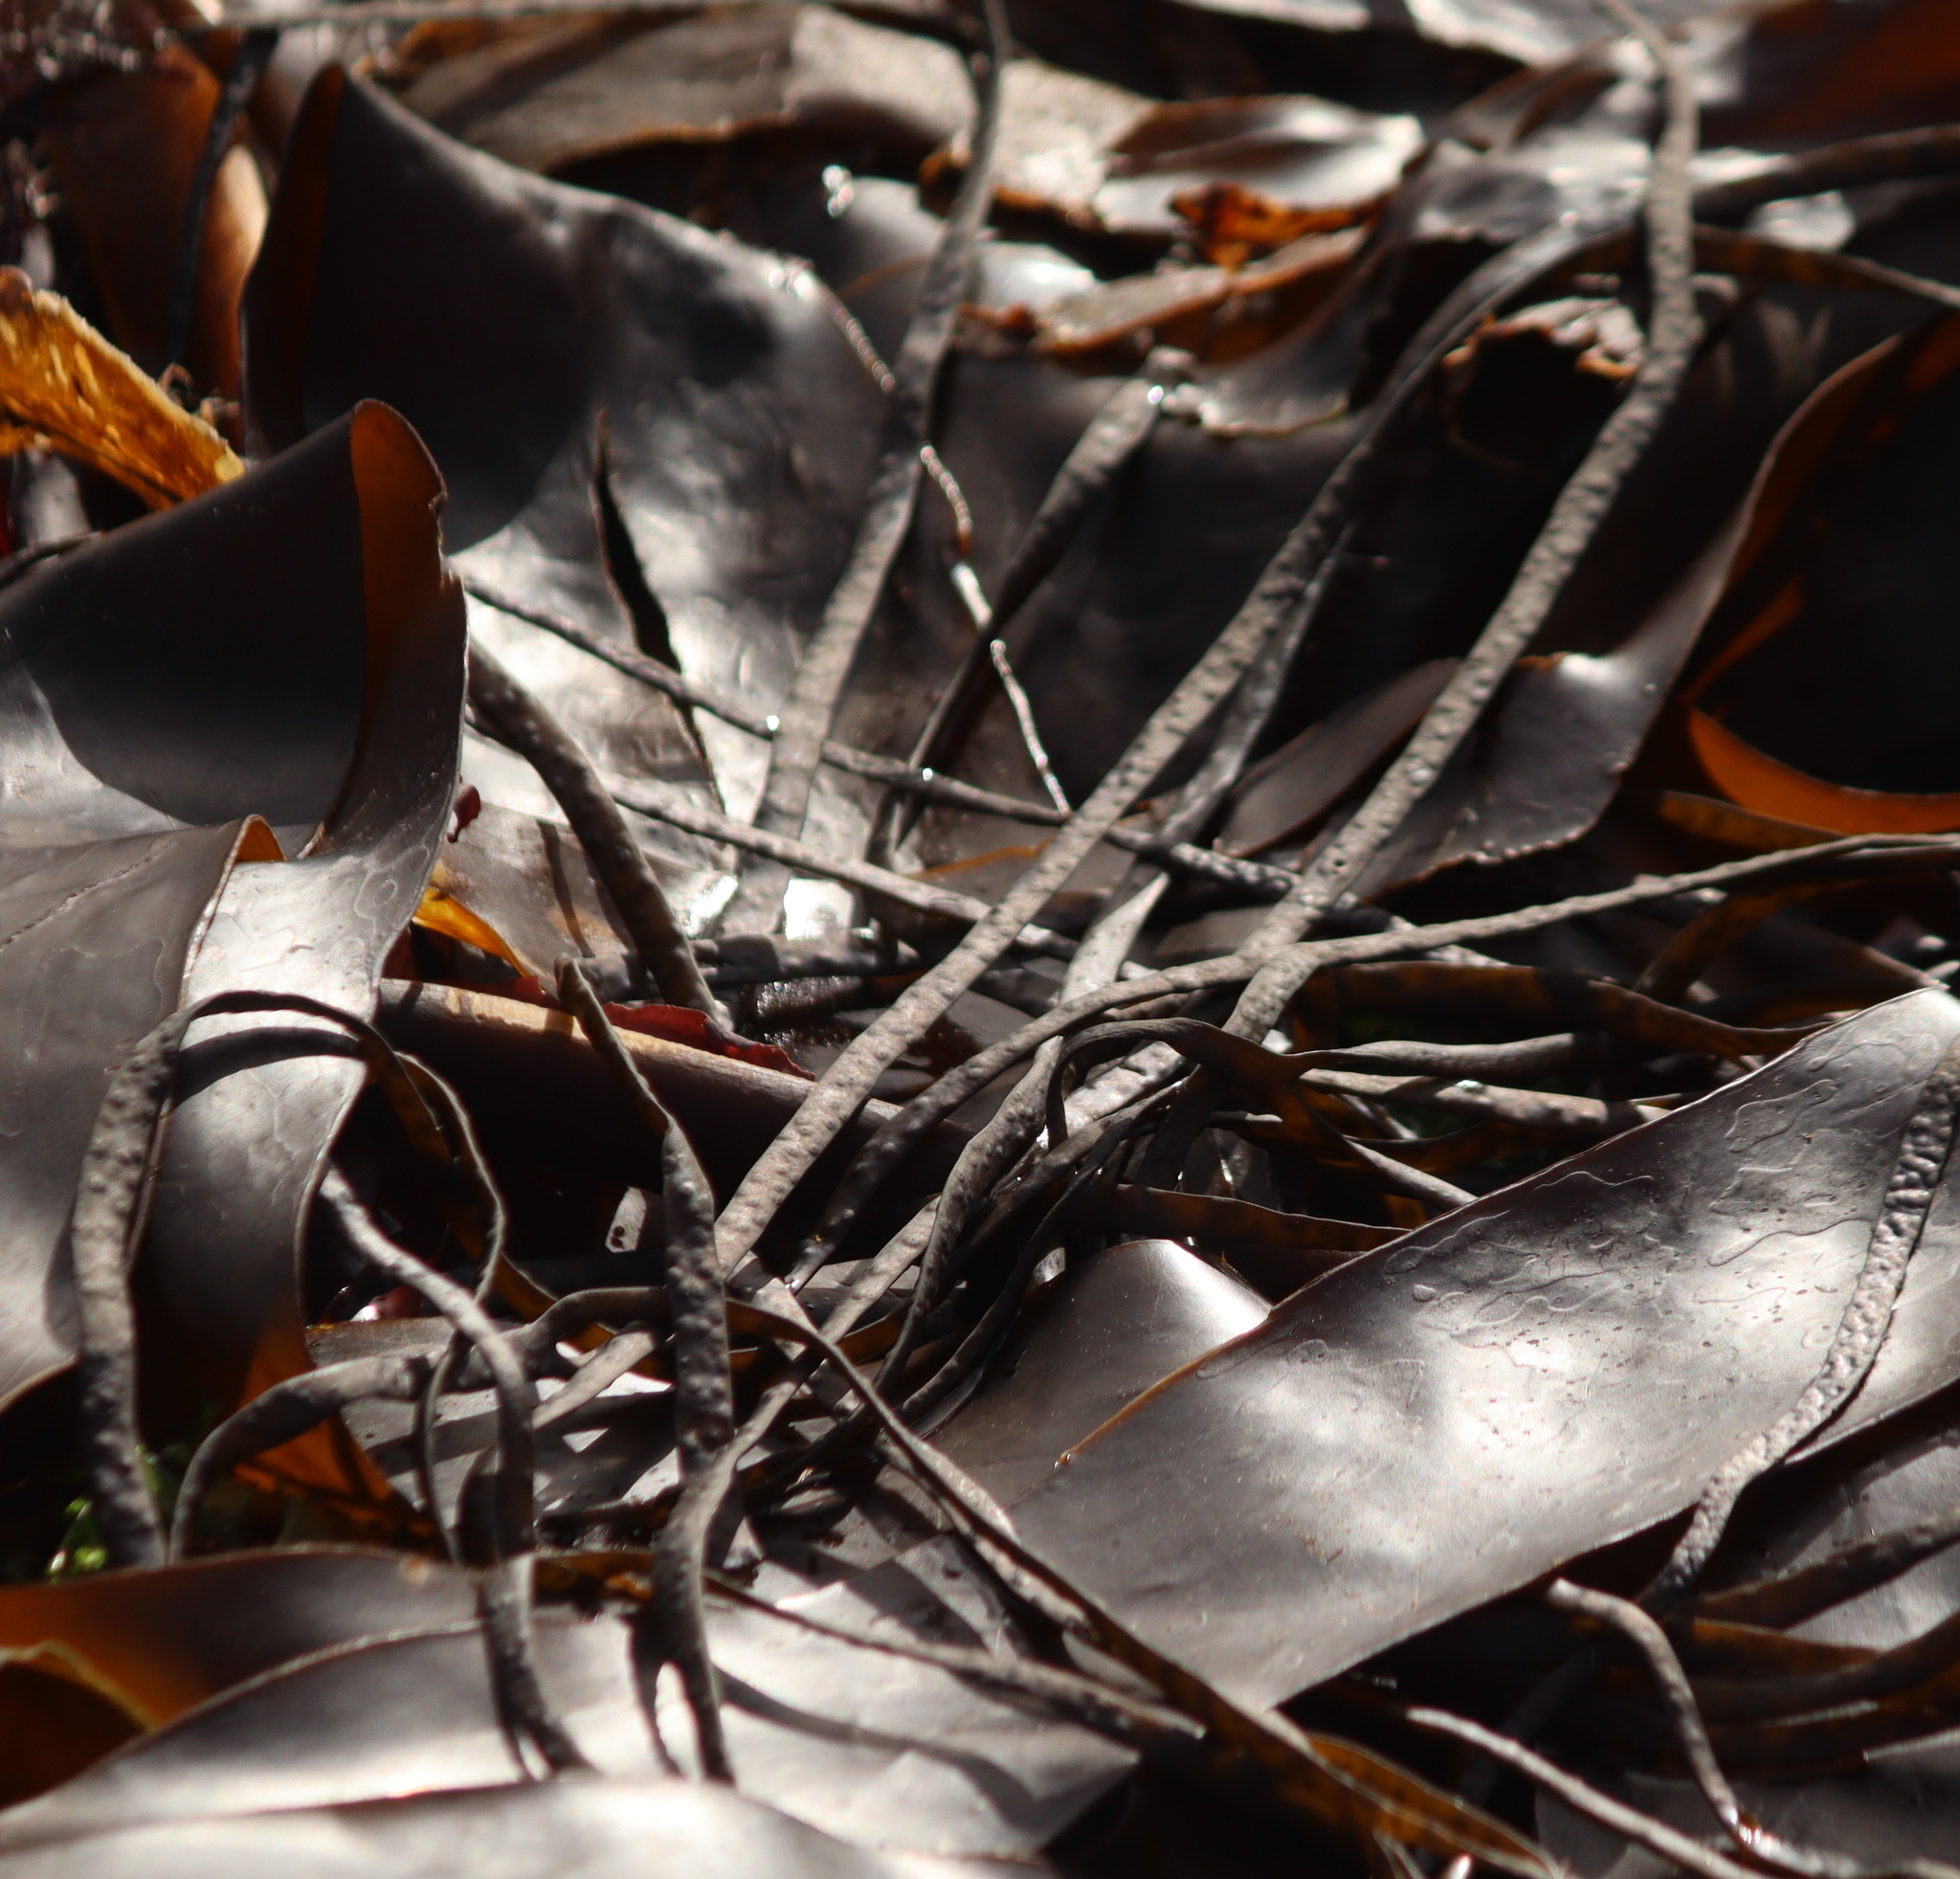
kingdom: Chromista
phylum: Ochrophyta
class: Phaeophyceae
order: Fucales
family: Himanthaliaceae
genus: Himanthalia
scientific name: Himanthalia elongata
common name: Sea-thong
